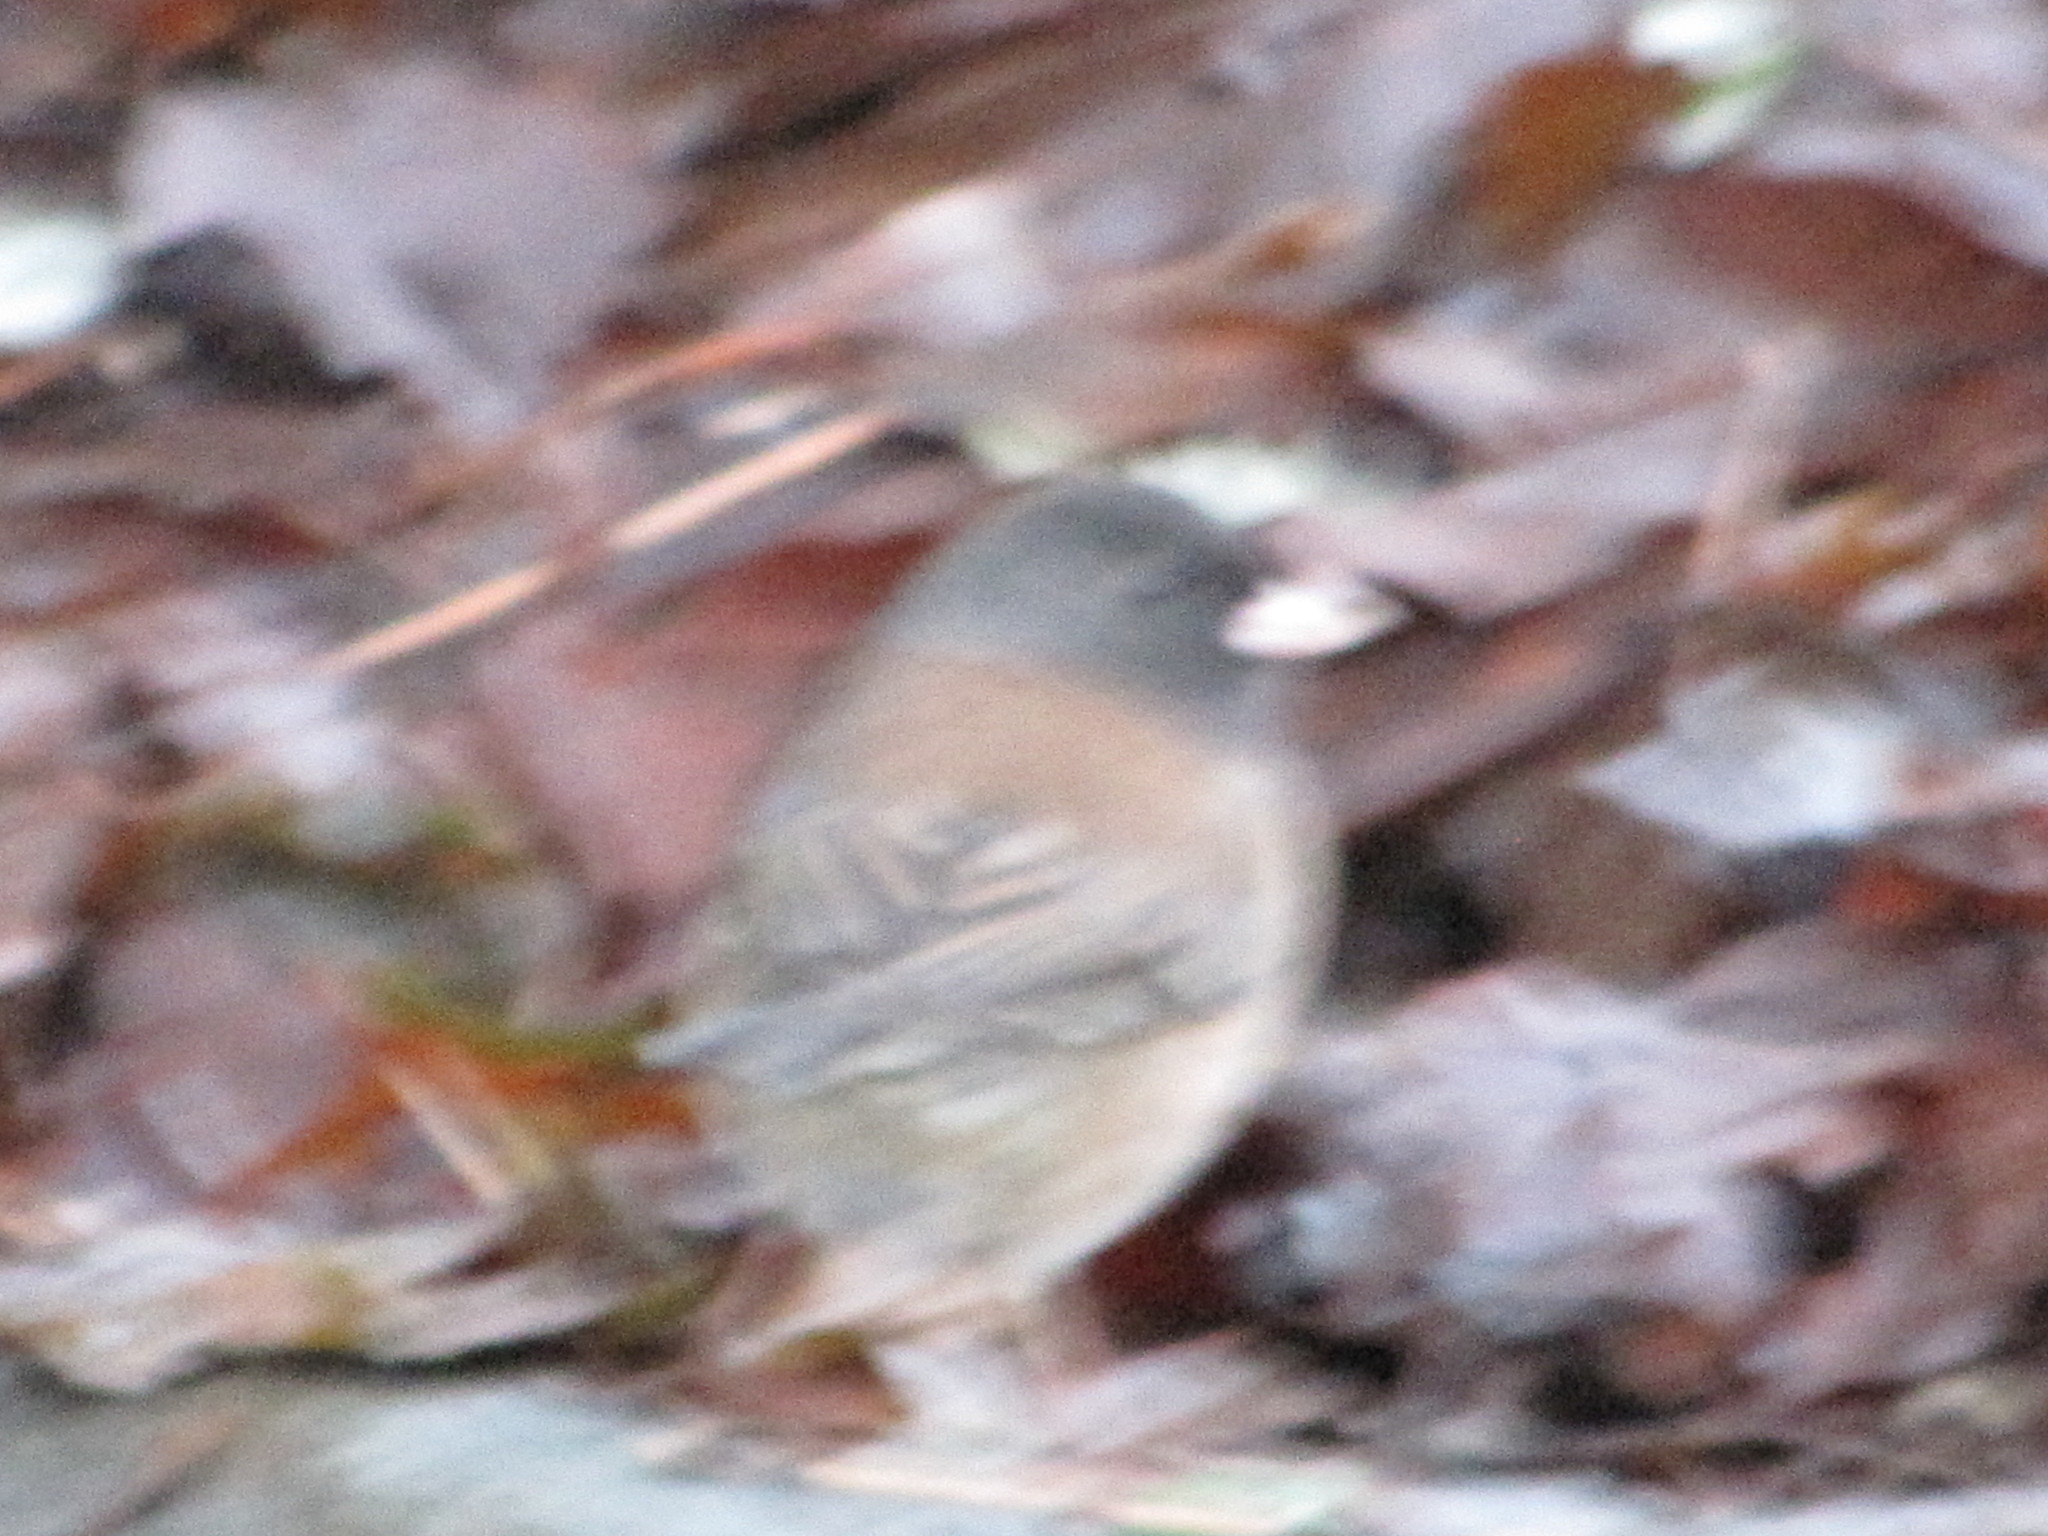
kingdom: Animalia
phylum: Chordata
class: Aves
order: Passeriformes
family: Passerellidae
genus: Junco
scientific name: Junco hyemalis
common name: Dark-eyed junco
